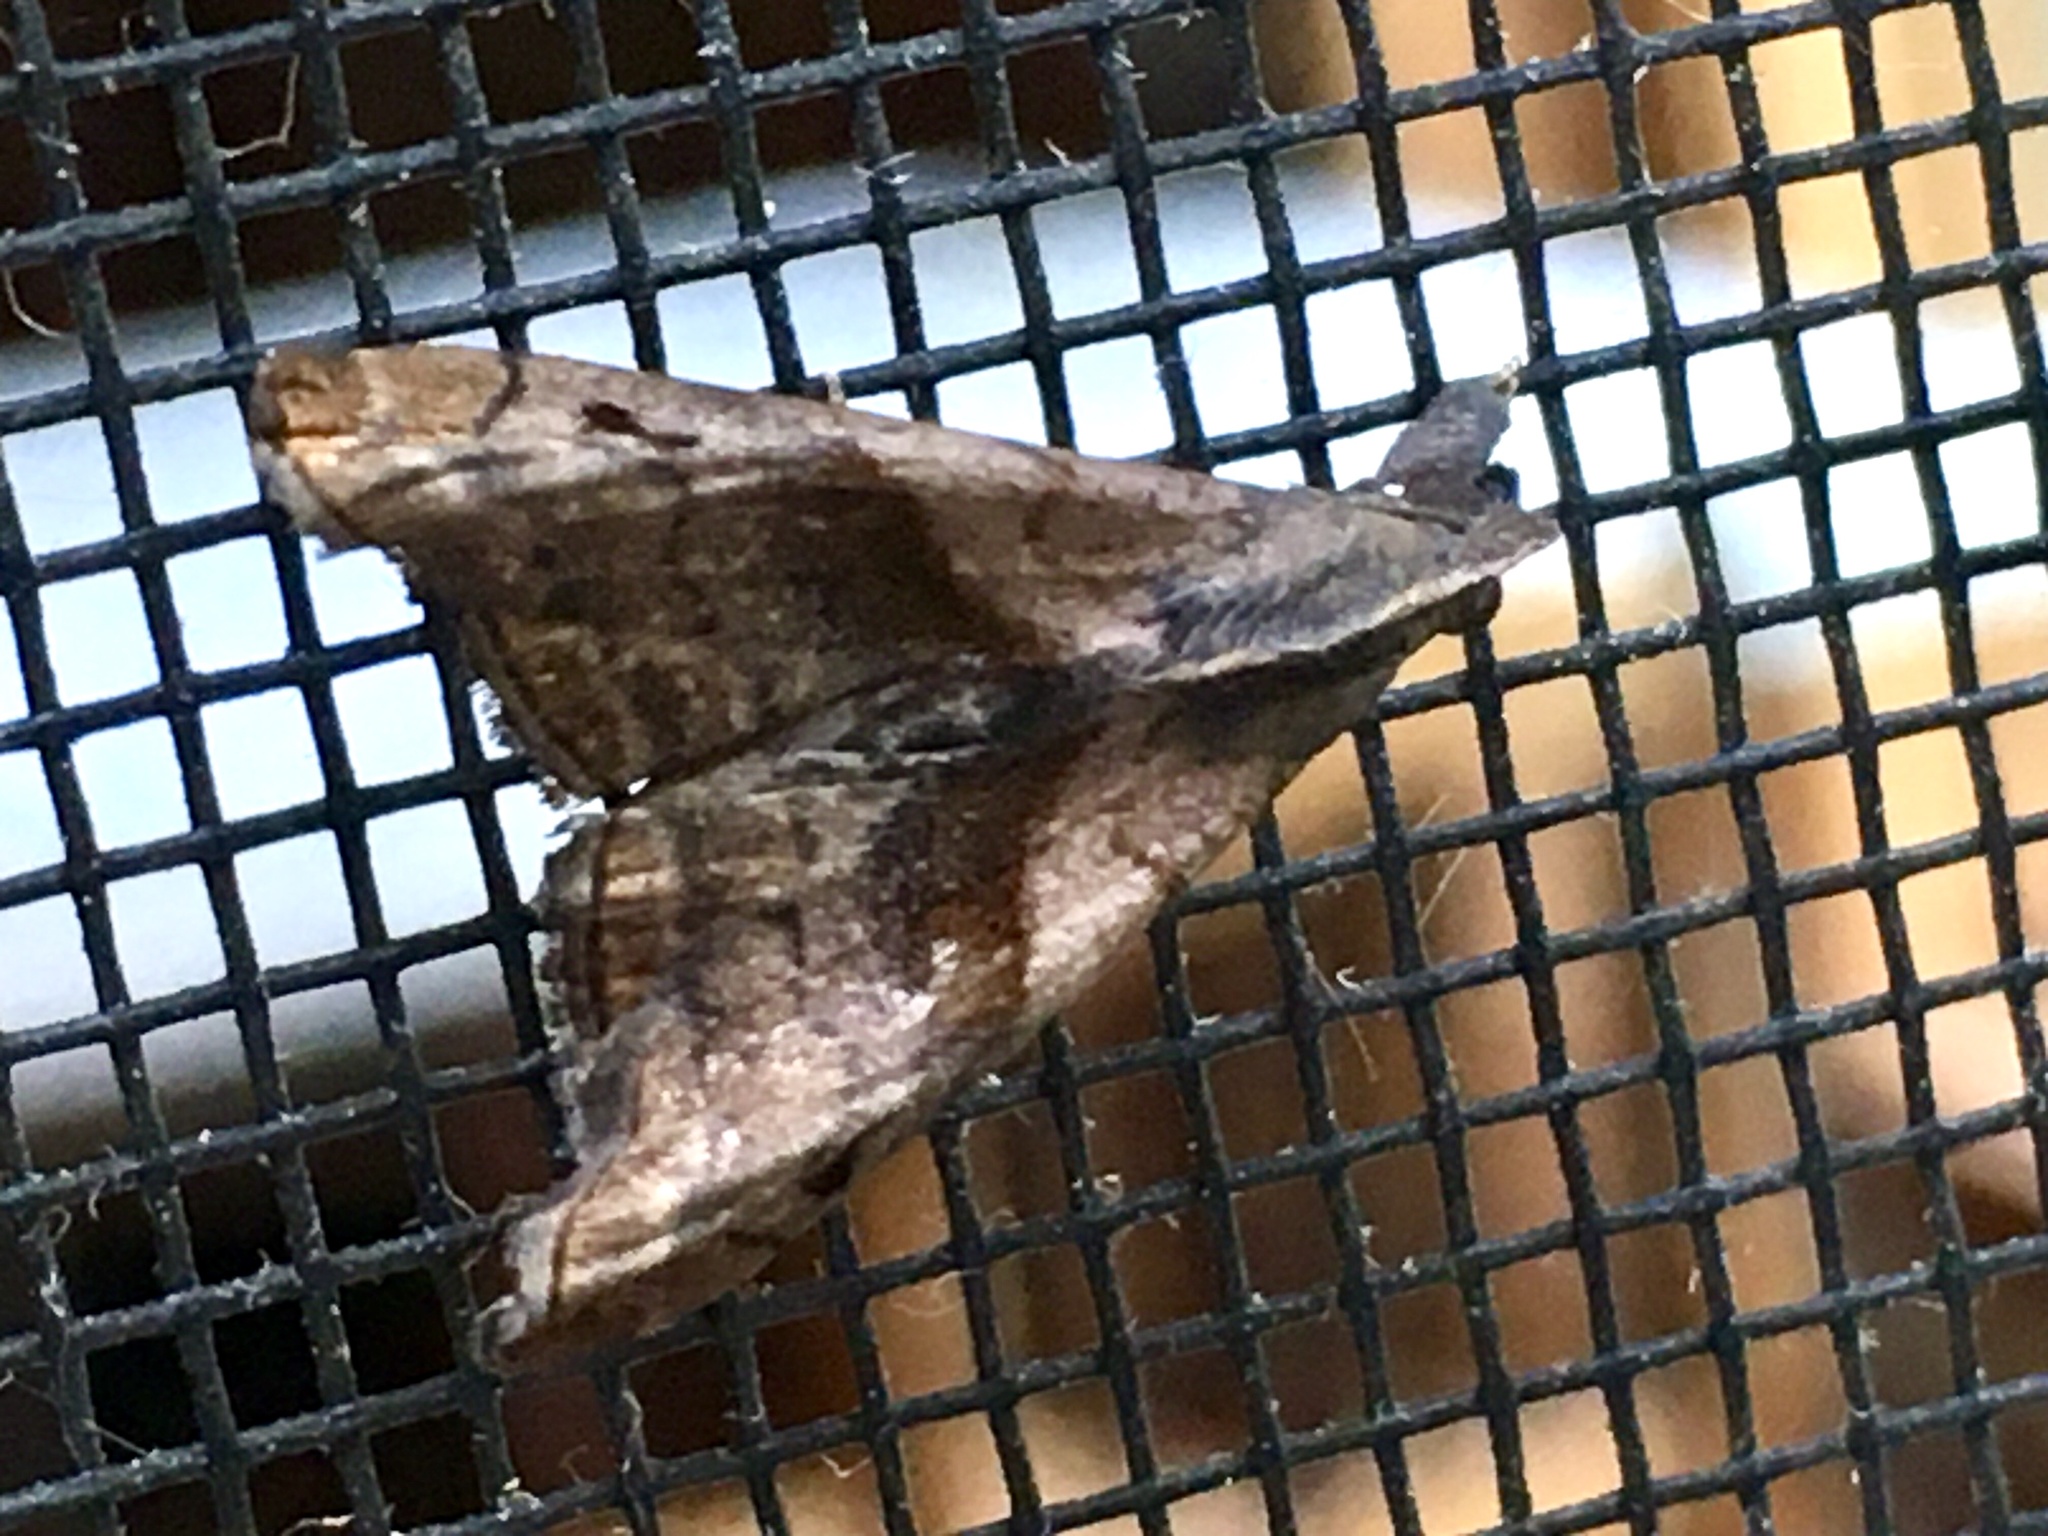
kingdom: Animalia
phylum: Arthropoda
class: Insecta
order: Lepidoptera
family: Erebidae
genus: Palthis
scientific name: Palthis angulalis
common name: Dark-spotted palthis moth
